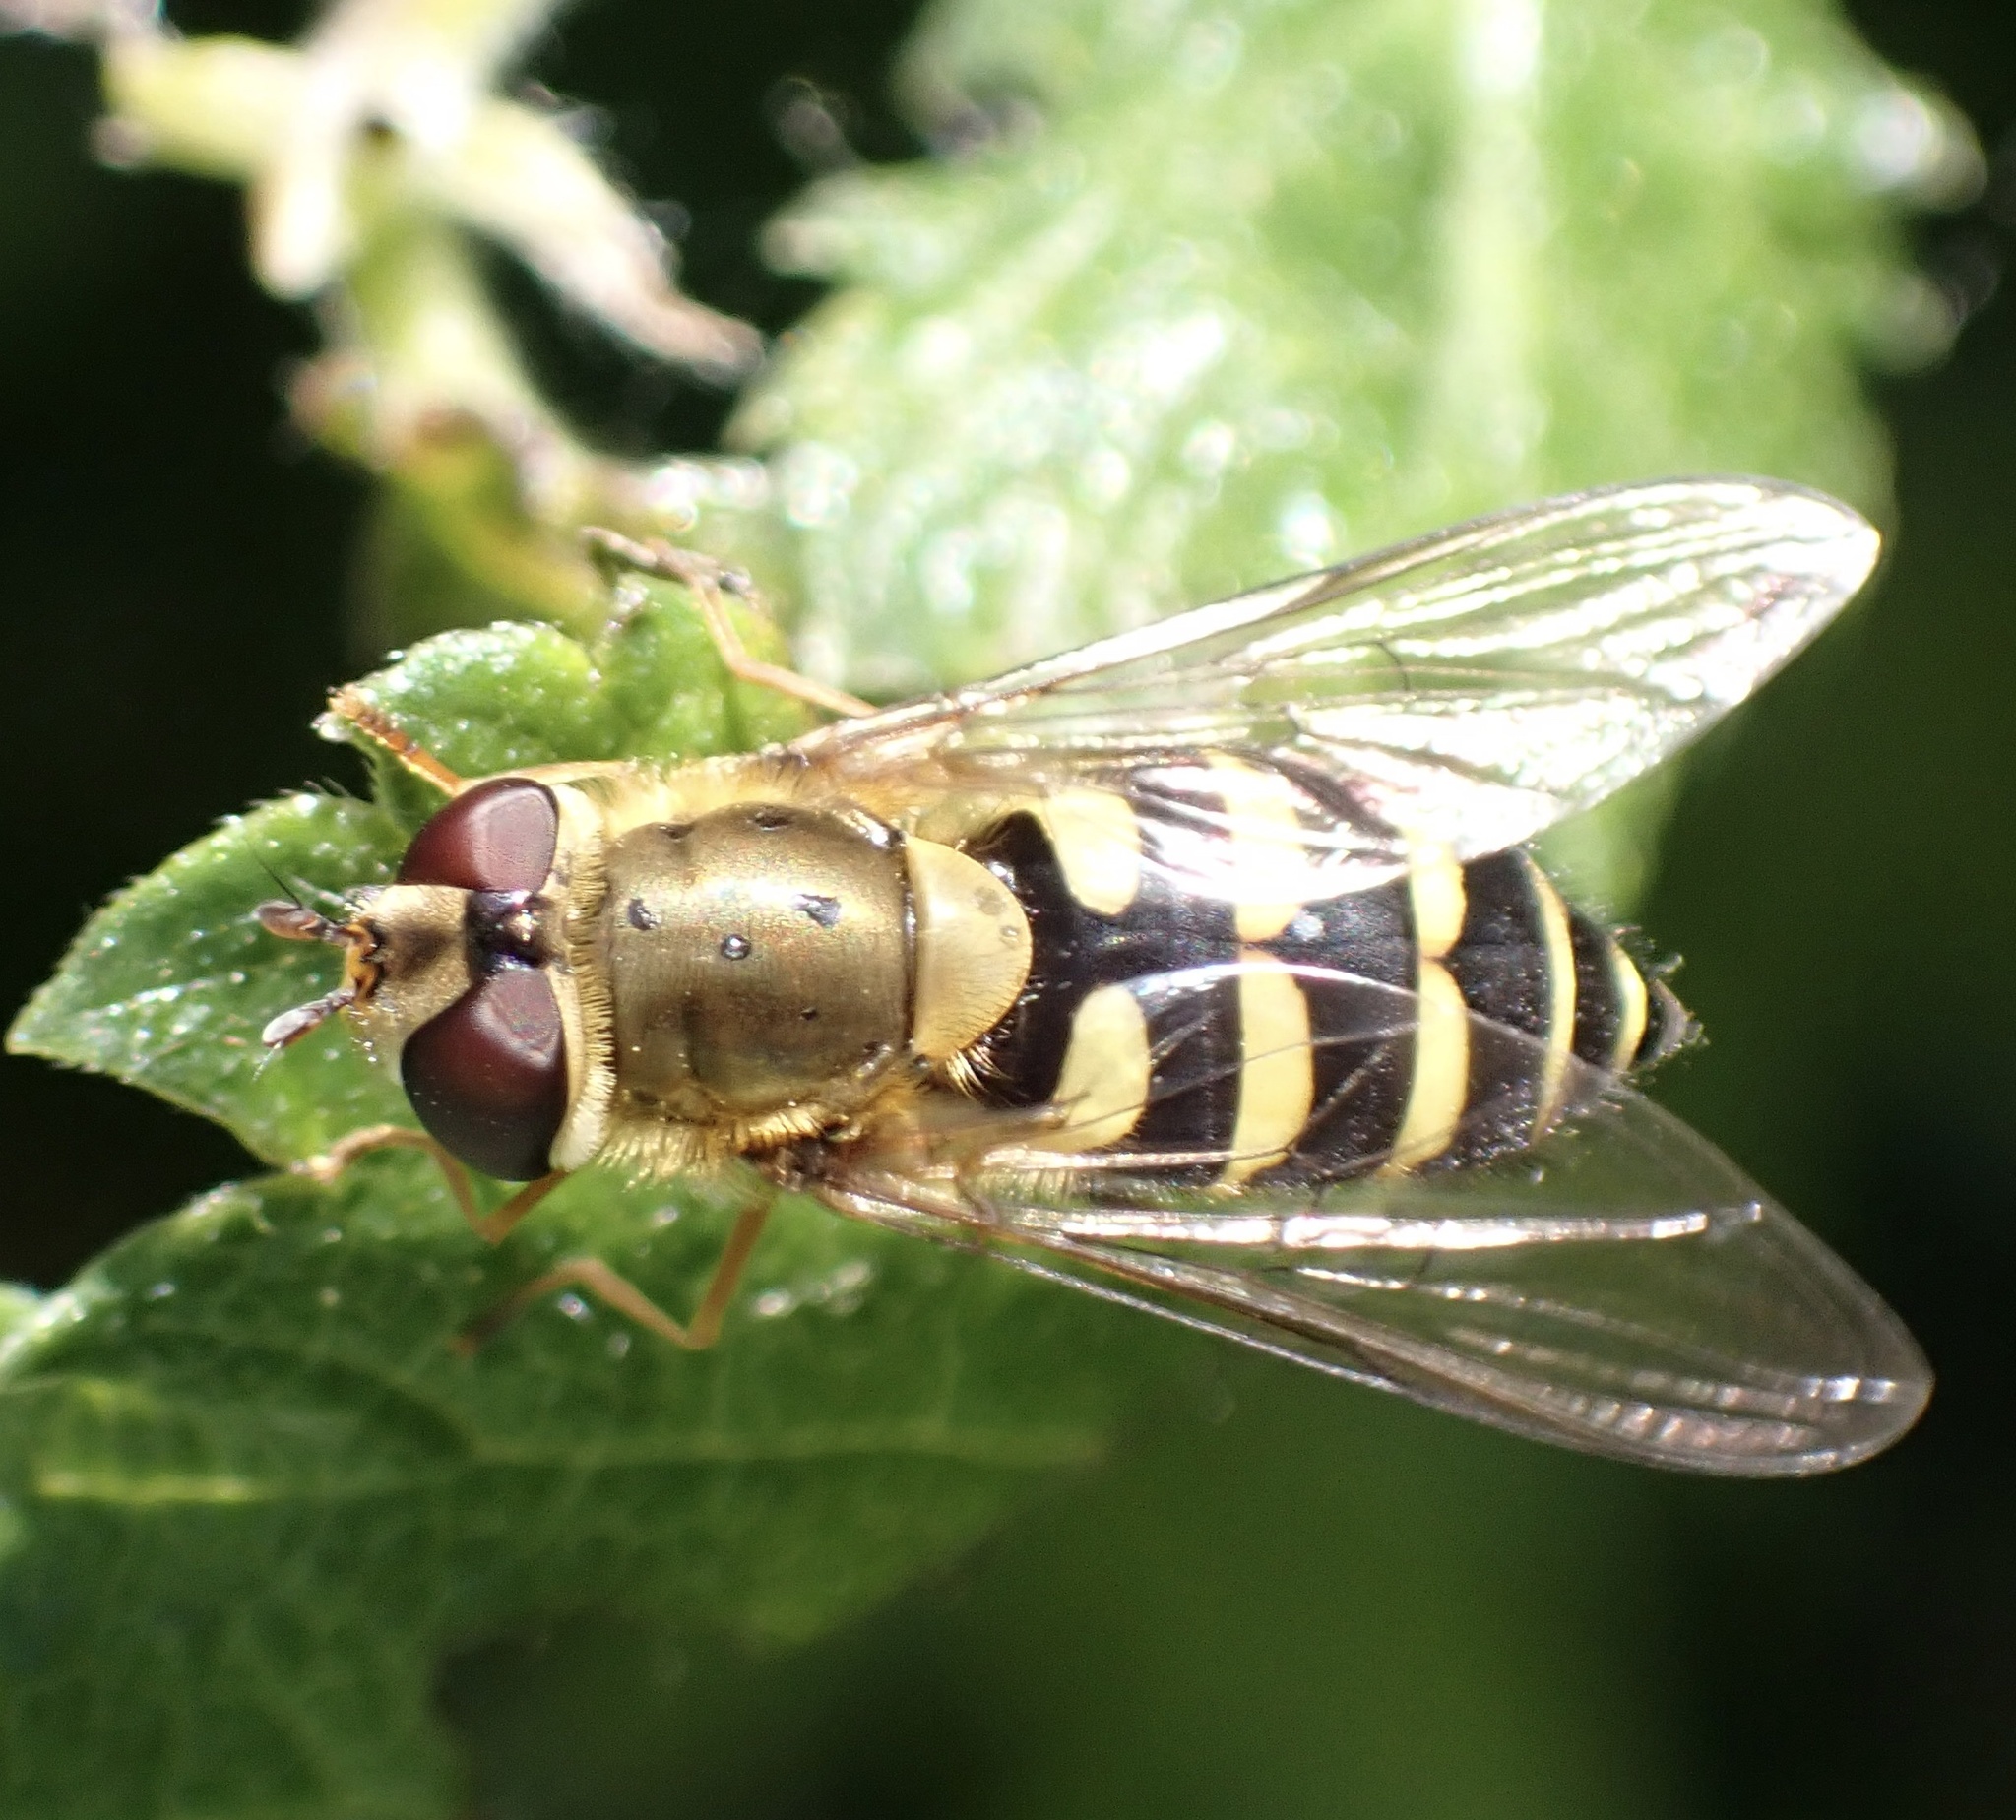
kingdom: Animalia
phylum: Arthropoda
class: Insecta
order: Diptera
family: Syrphidae
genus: Syrphus
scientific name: Syrphus
